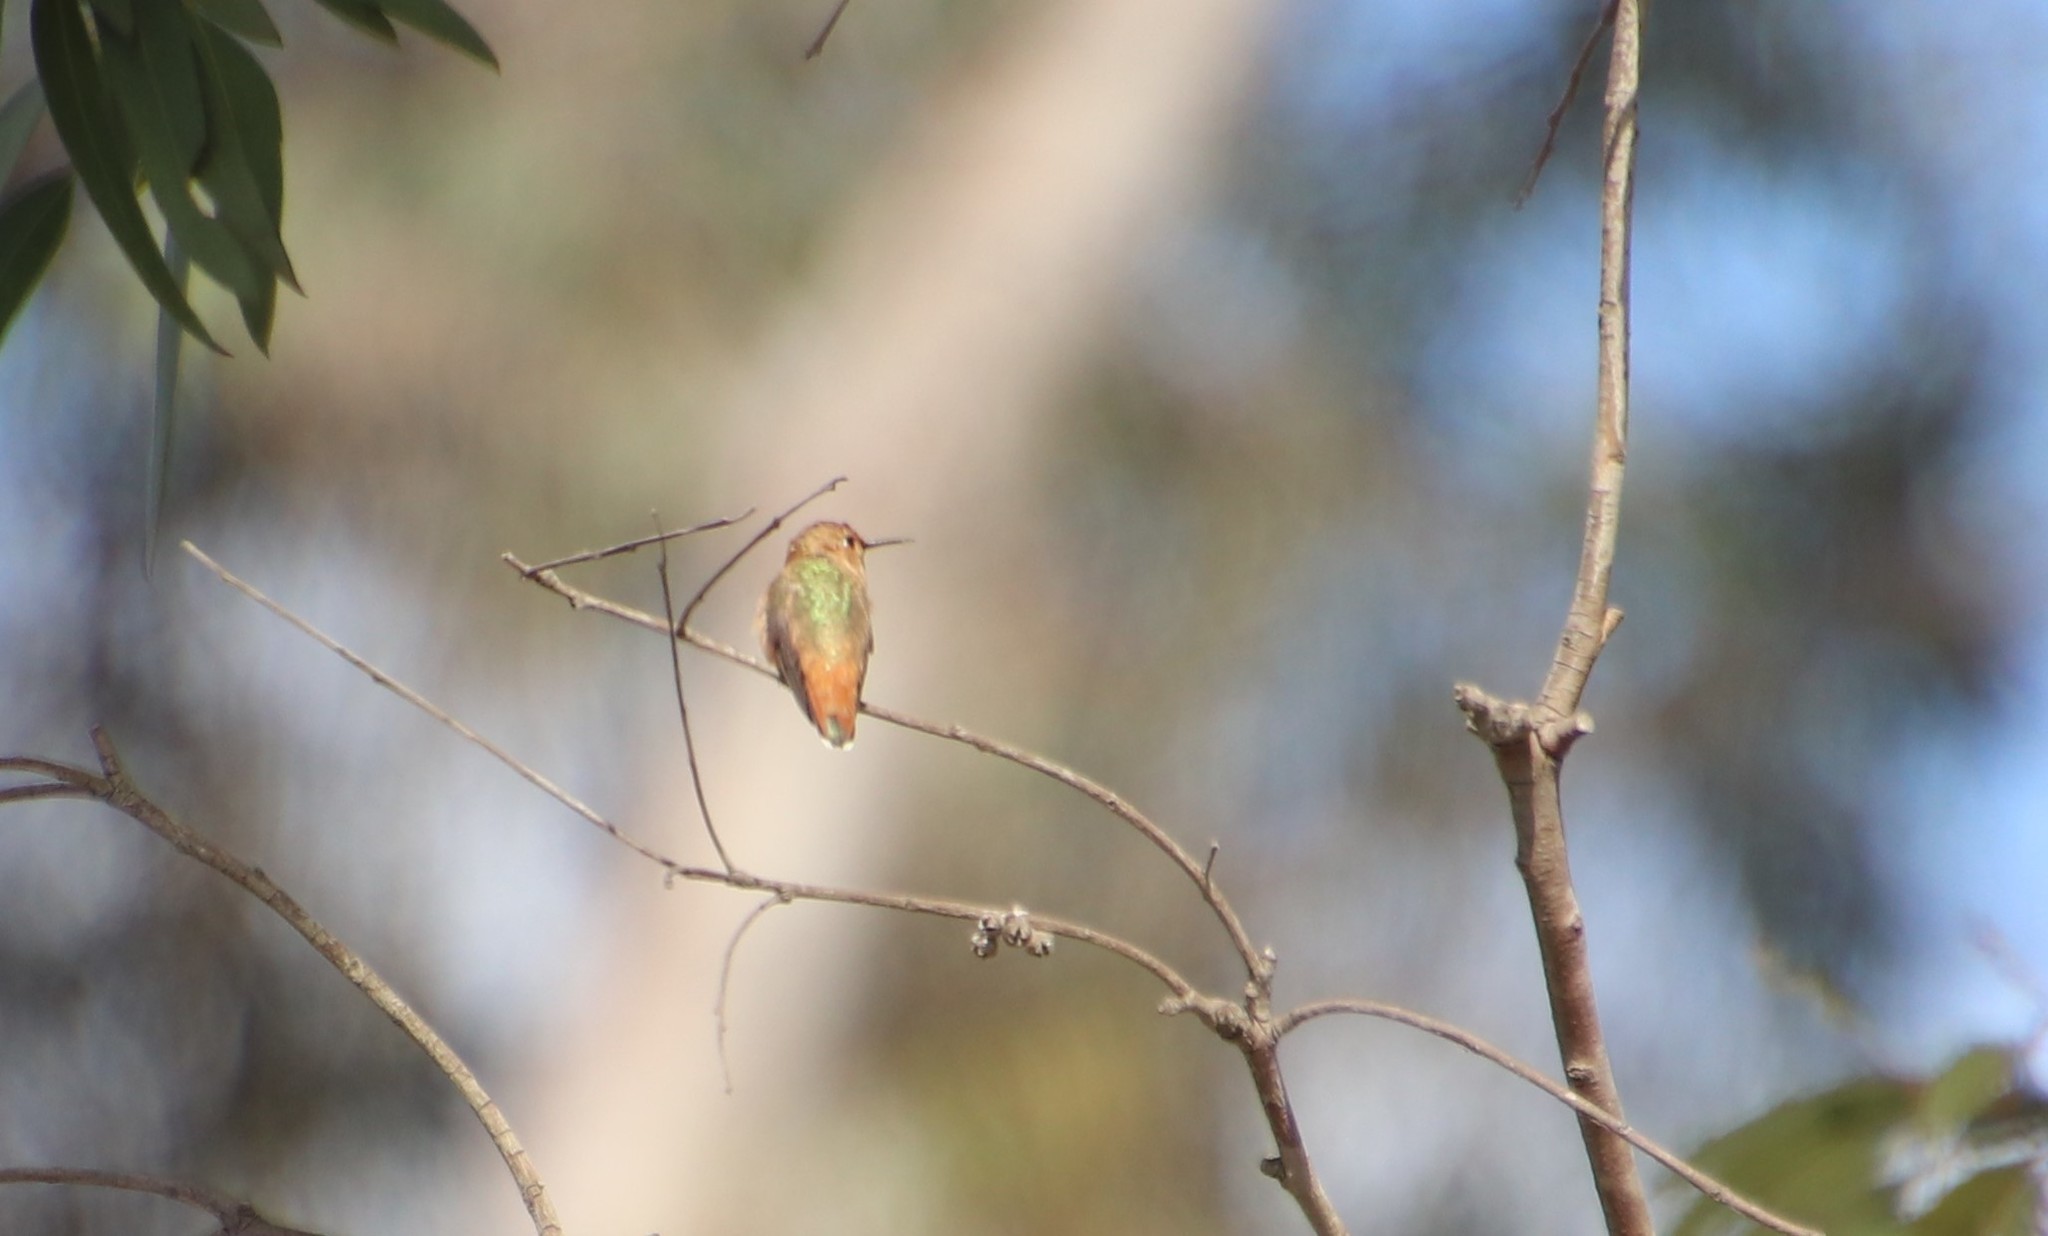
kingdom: Animalia
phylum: Chordata
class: Aves
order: Apodiformes
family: Trochilidae
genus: Selasphorus
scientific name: Selasphorus sasin
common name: Allen's hummingbird
